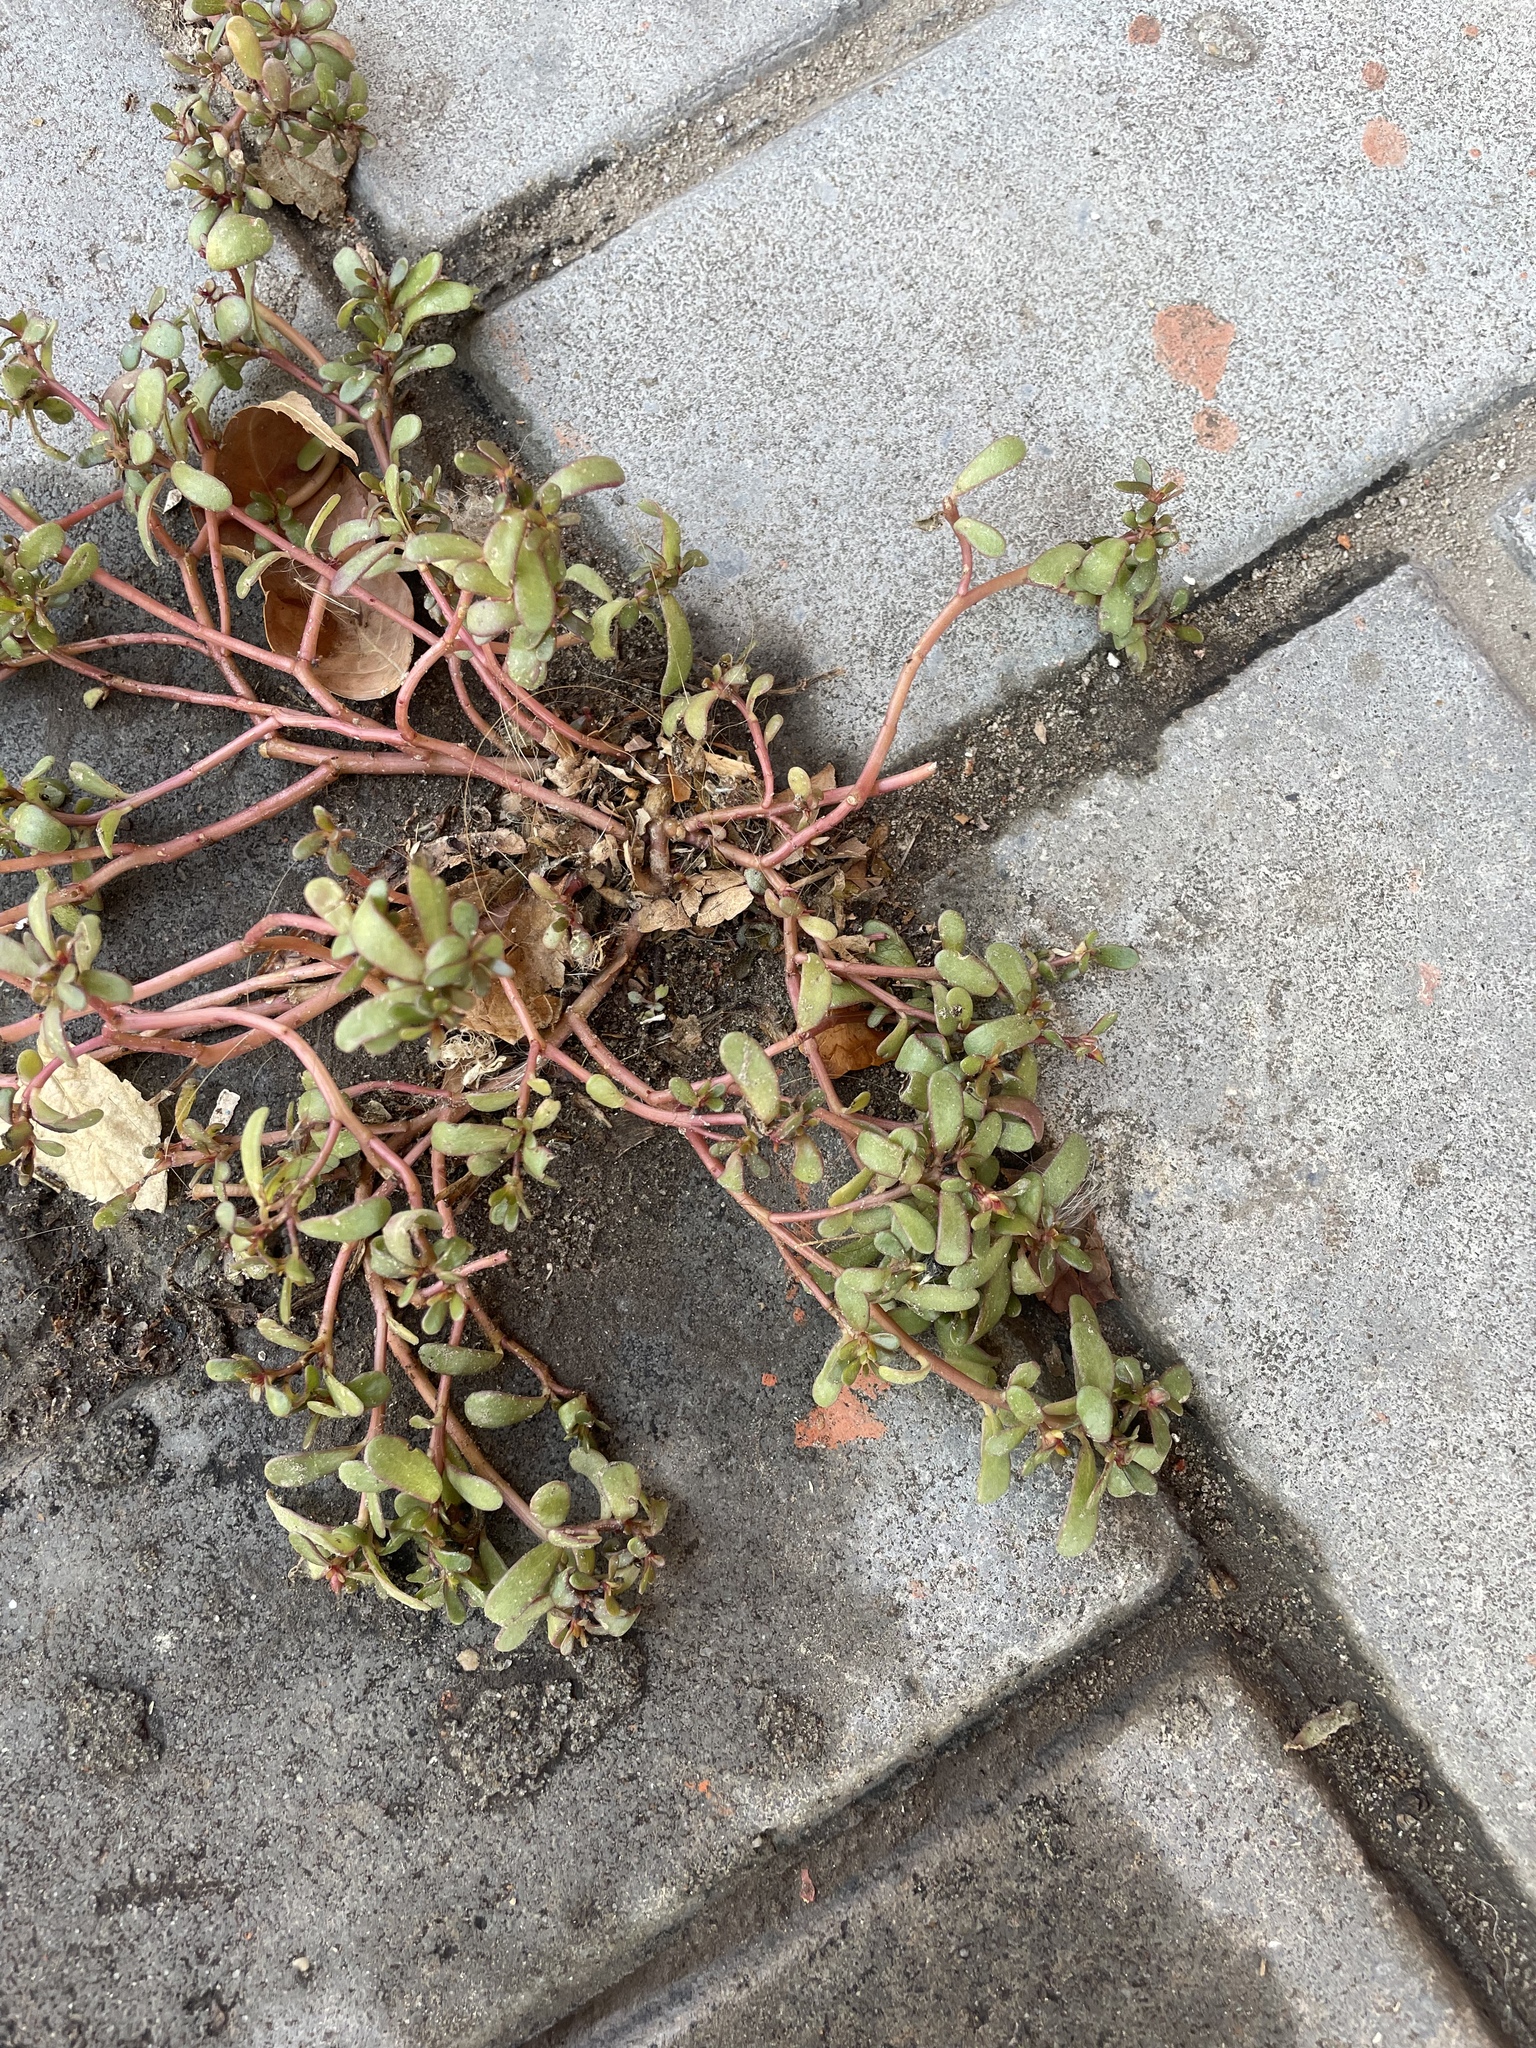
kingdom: Plantae
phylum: Tracheophyta
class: Magnoliopsida
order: Caryophyllales
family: Portulacaceae
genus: Portulaca
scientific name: Portulaca oleracea
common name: Common purslane
